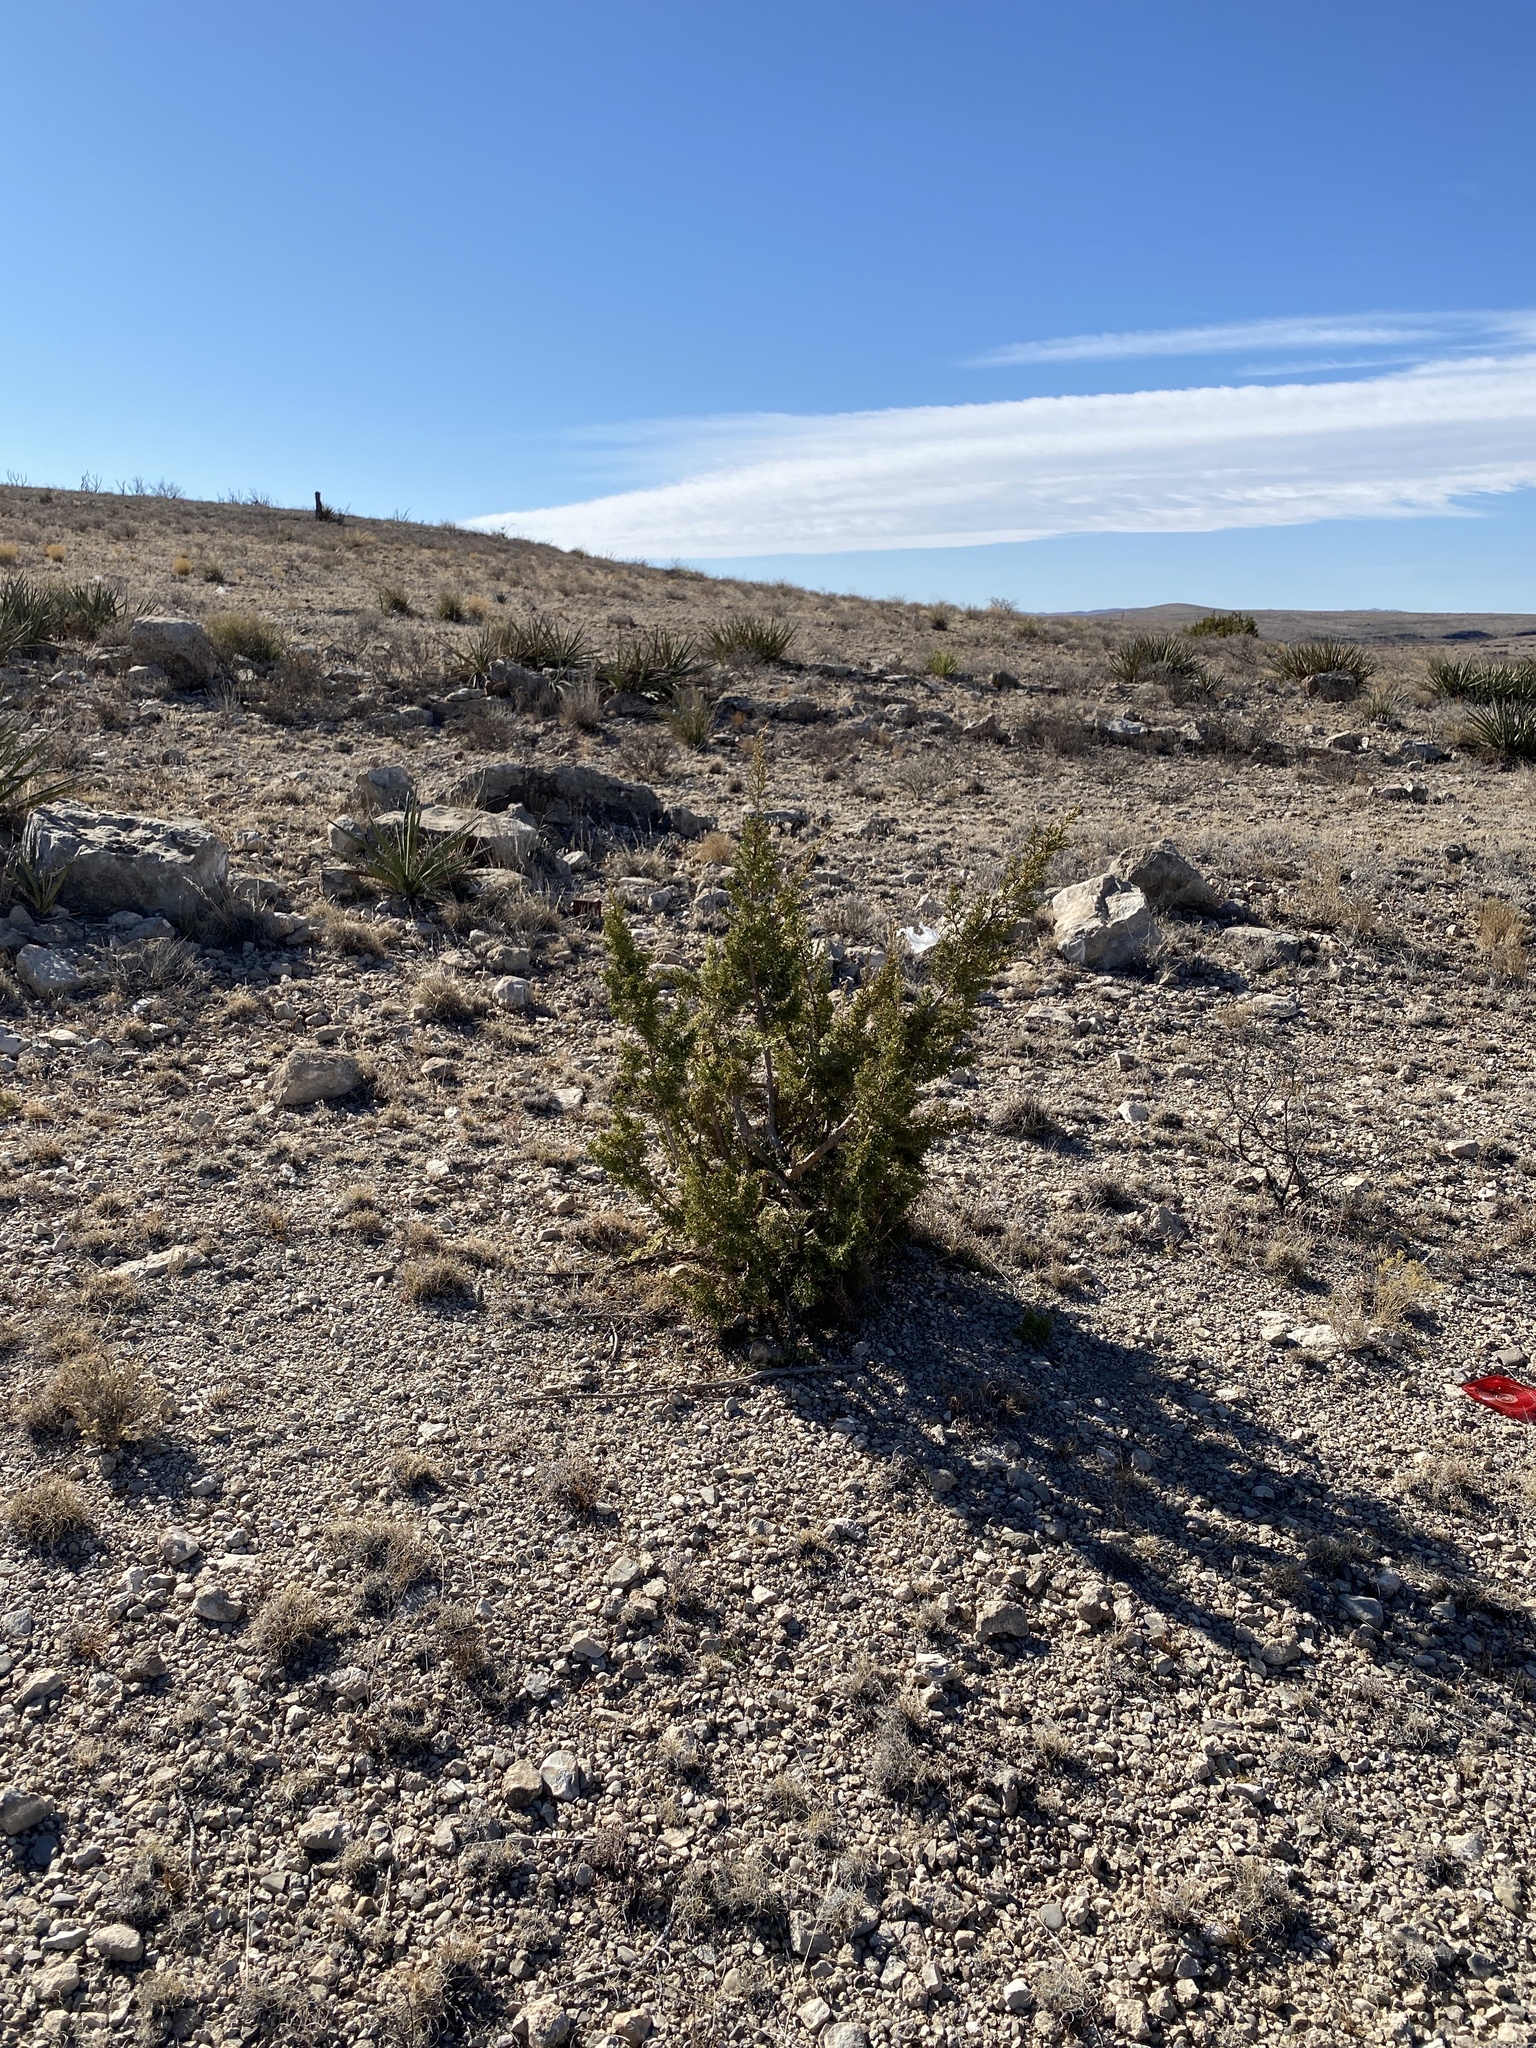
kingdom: Plantae
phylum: Tracheophyta
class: Pinopsida
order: Pinales
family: Cupressaceae
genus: Juniperus
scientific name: Juniperus monosperma
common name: One-seed juniper
